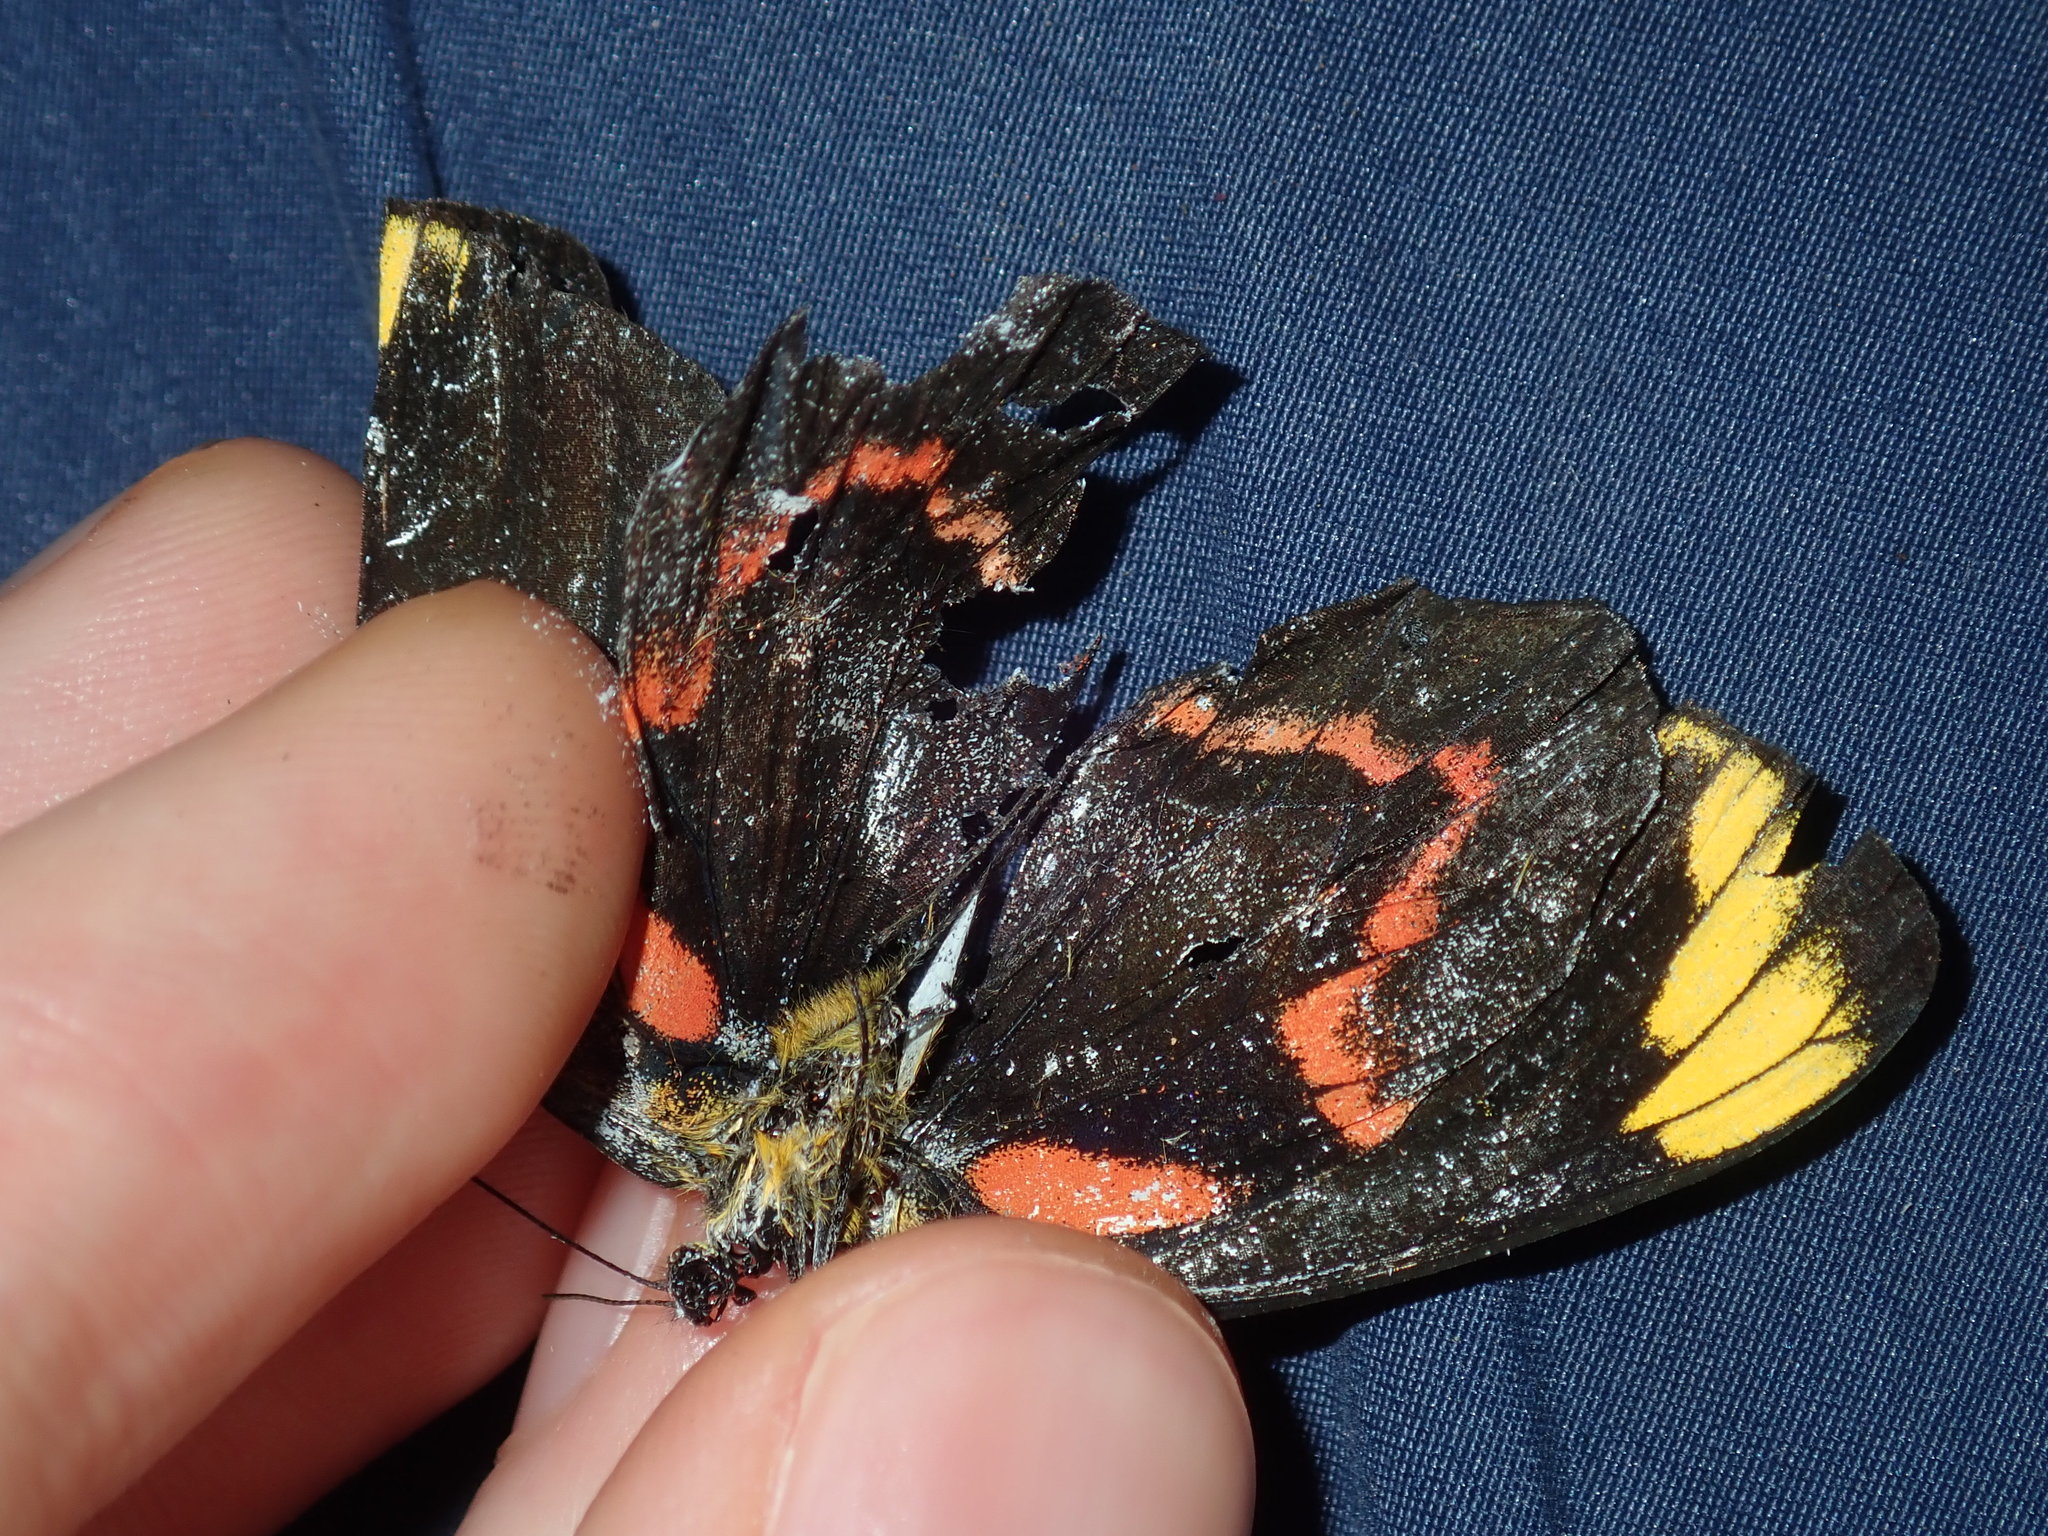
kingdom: Animalia
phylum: Arthropoda
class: Insecta
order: Lepidoptera
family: Pieridae
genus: Delias
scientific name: Delias nigrina
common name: Black jezebel
